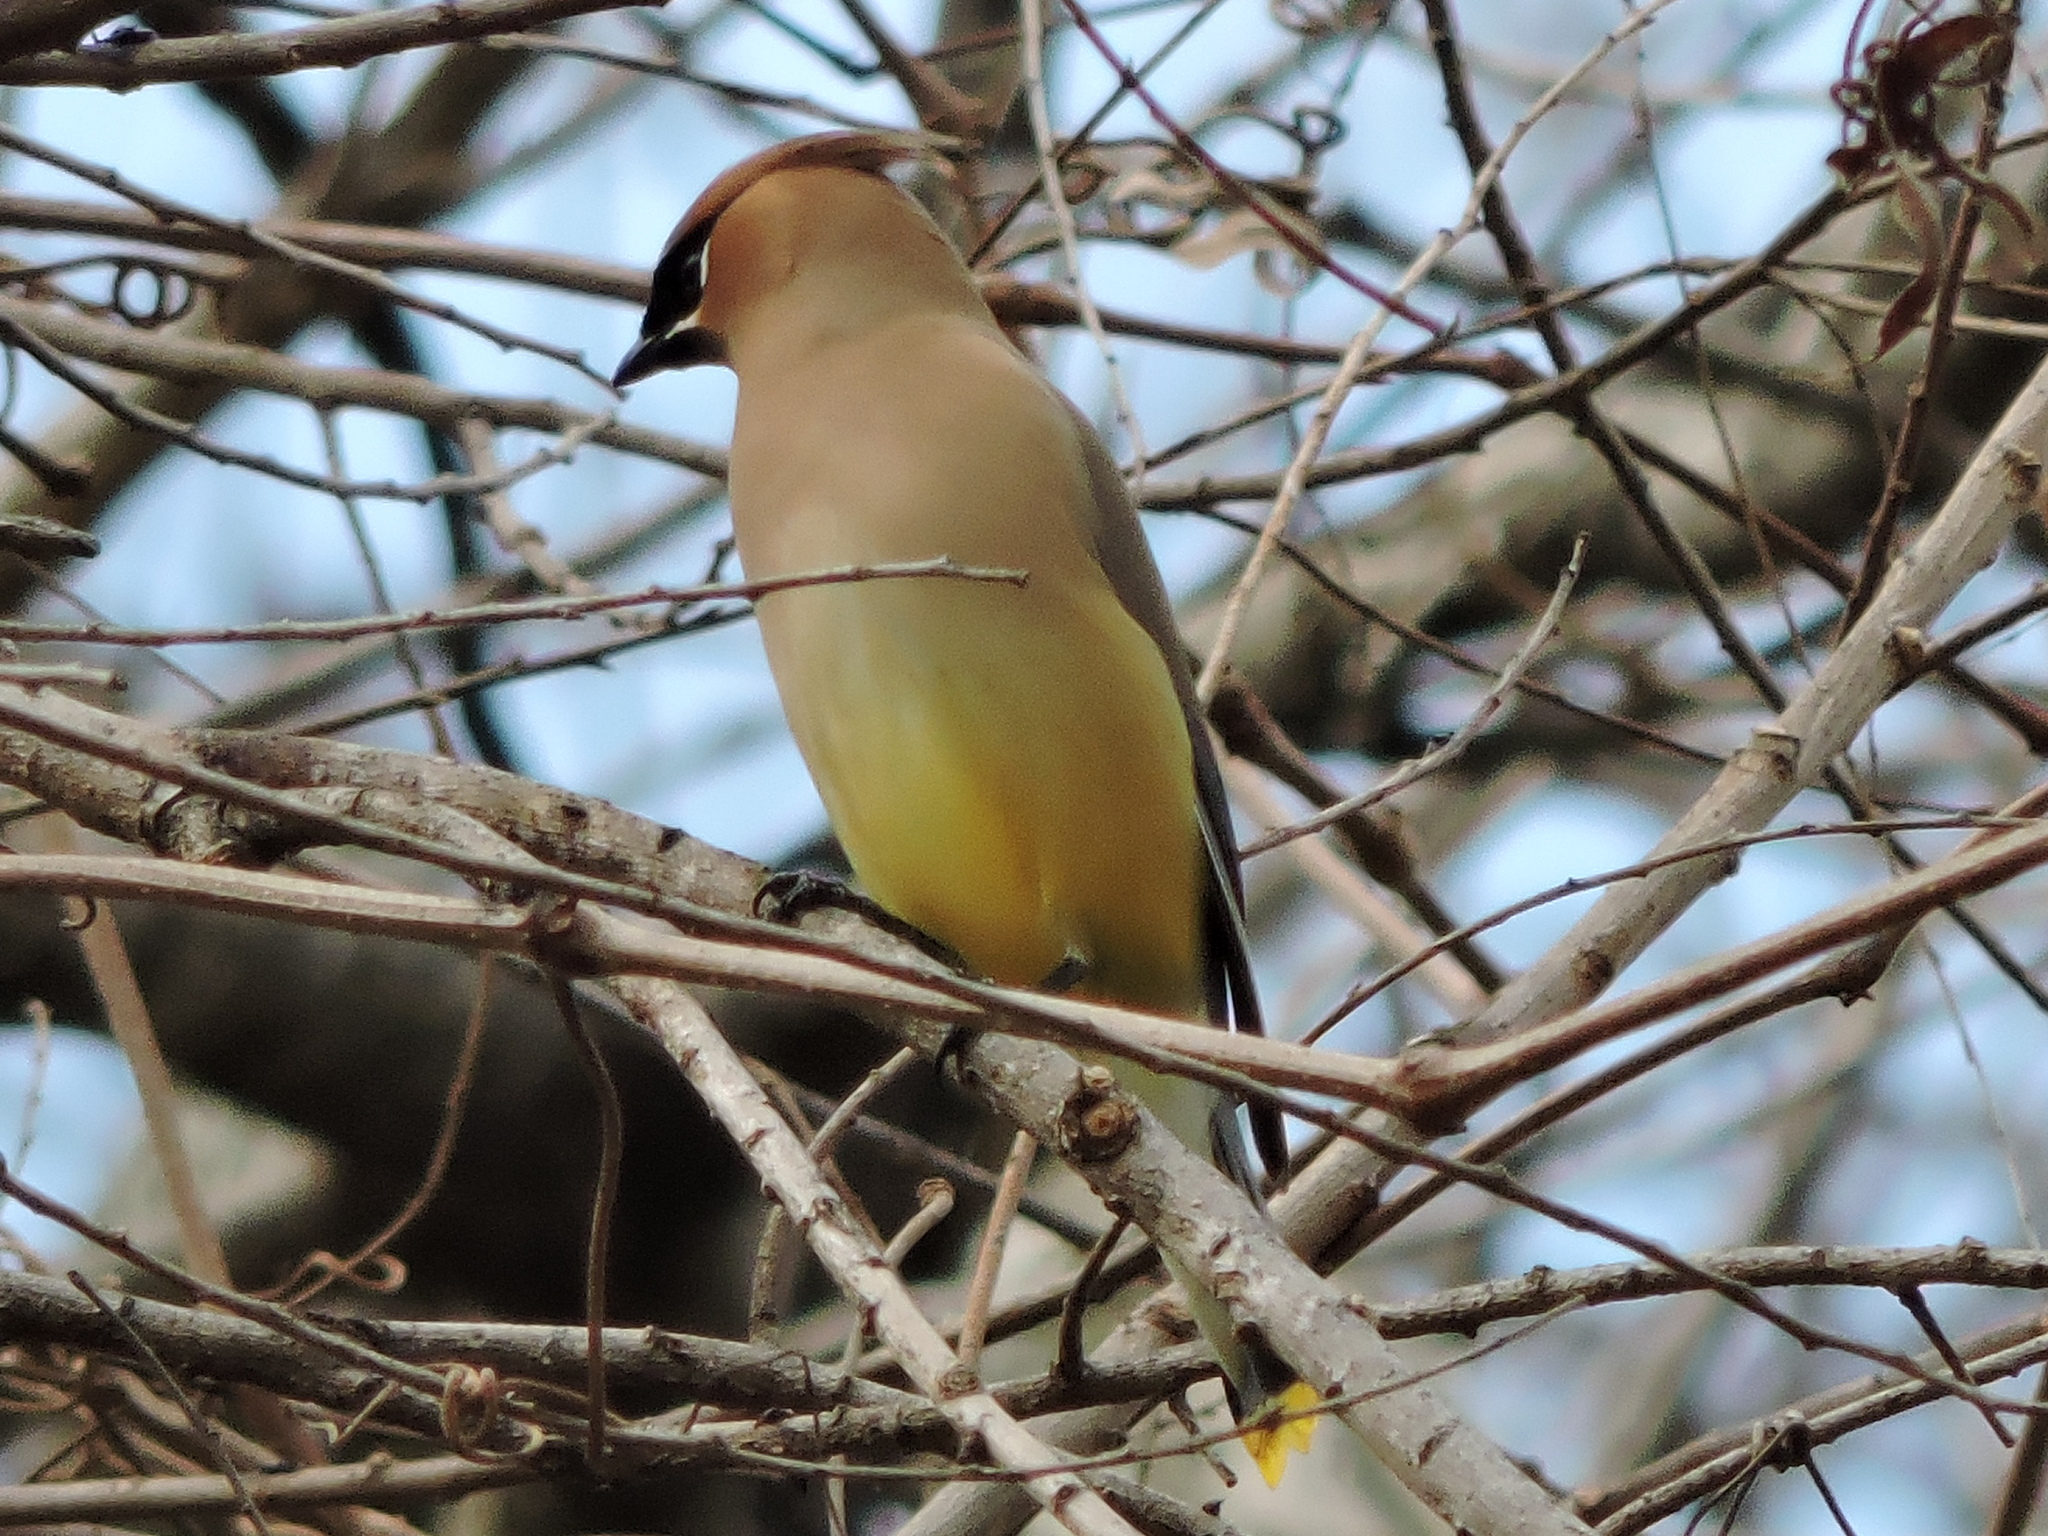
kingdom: Animalia
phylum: Chordata
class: Aves
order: Passeriformes
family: Bombycillidae
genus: Bombycilla
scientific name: Bombycilla cedrorum
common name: Cedar waxwing
